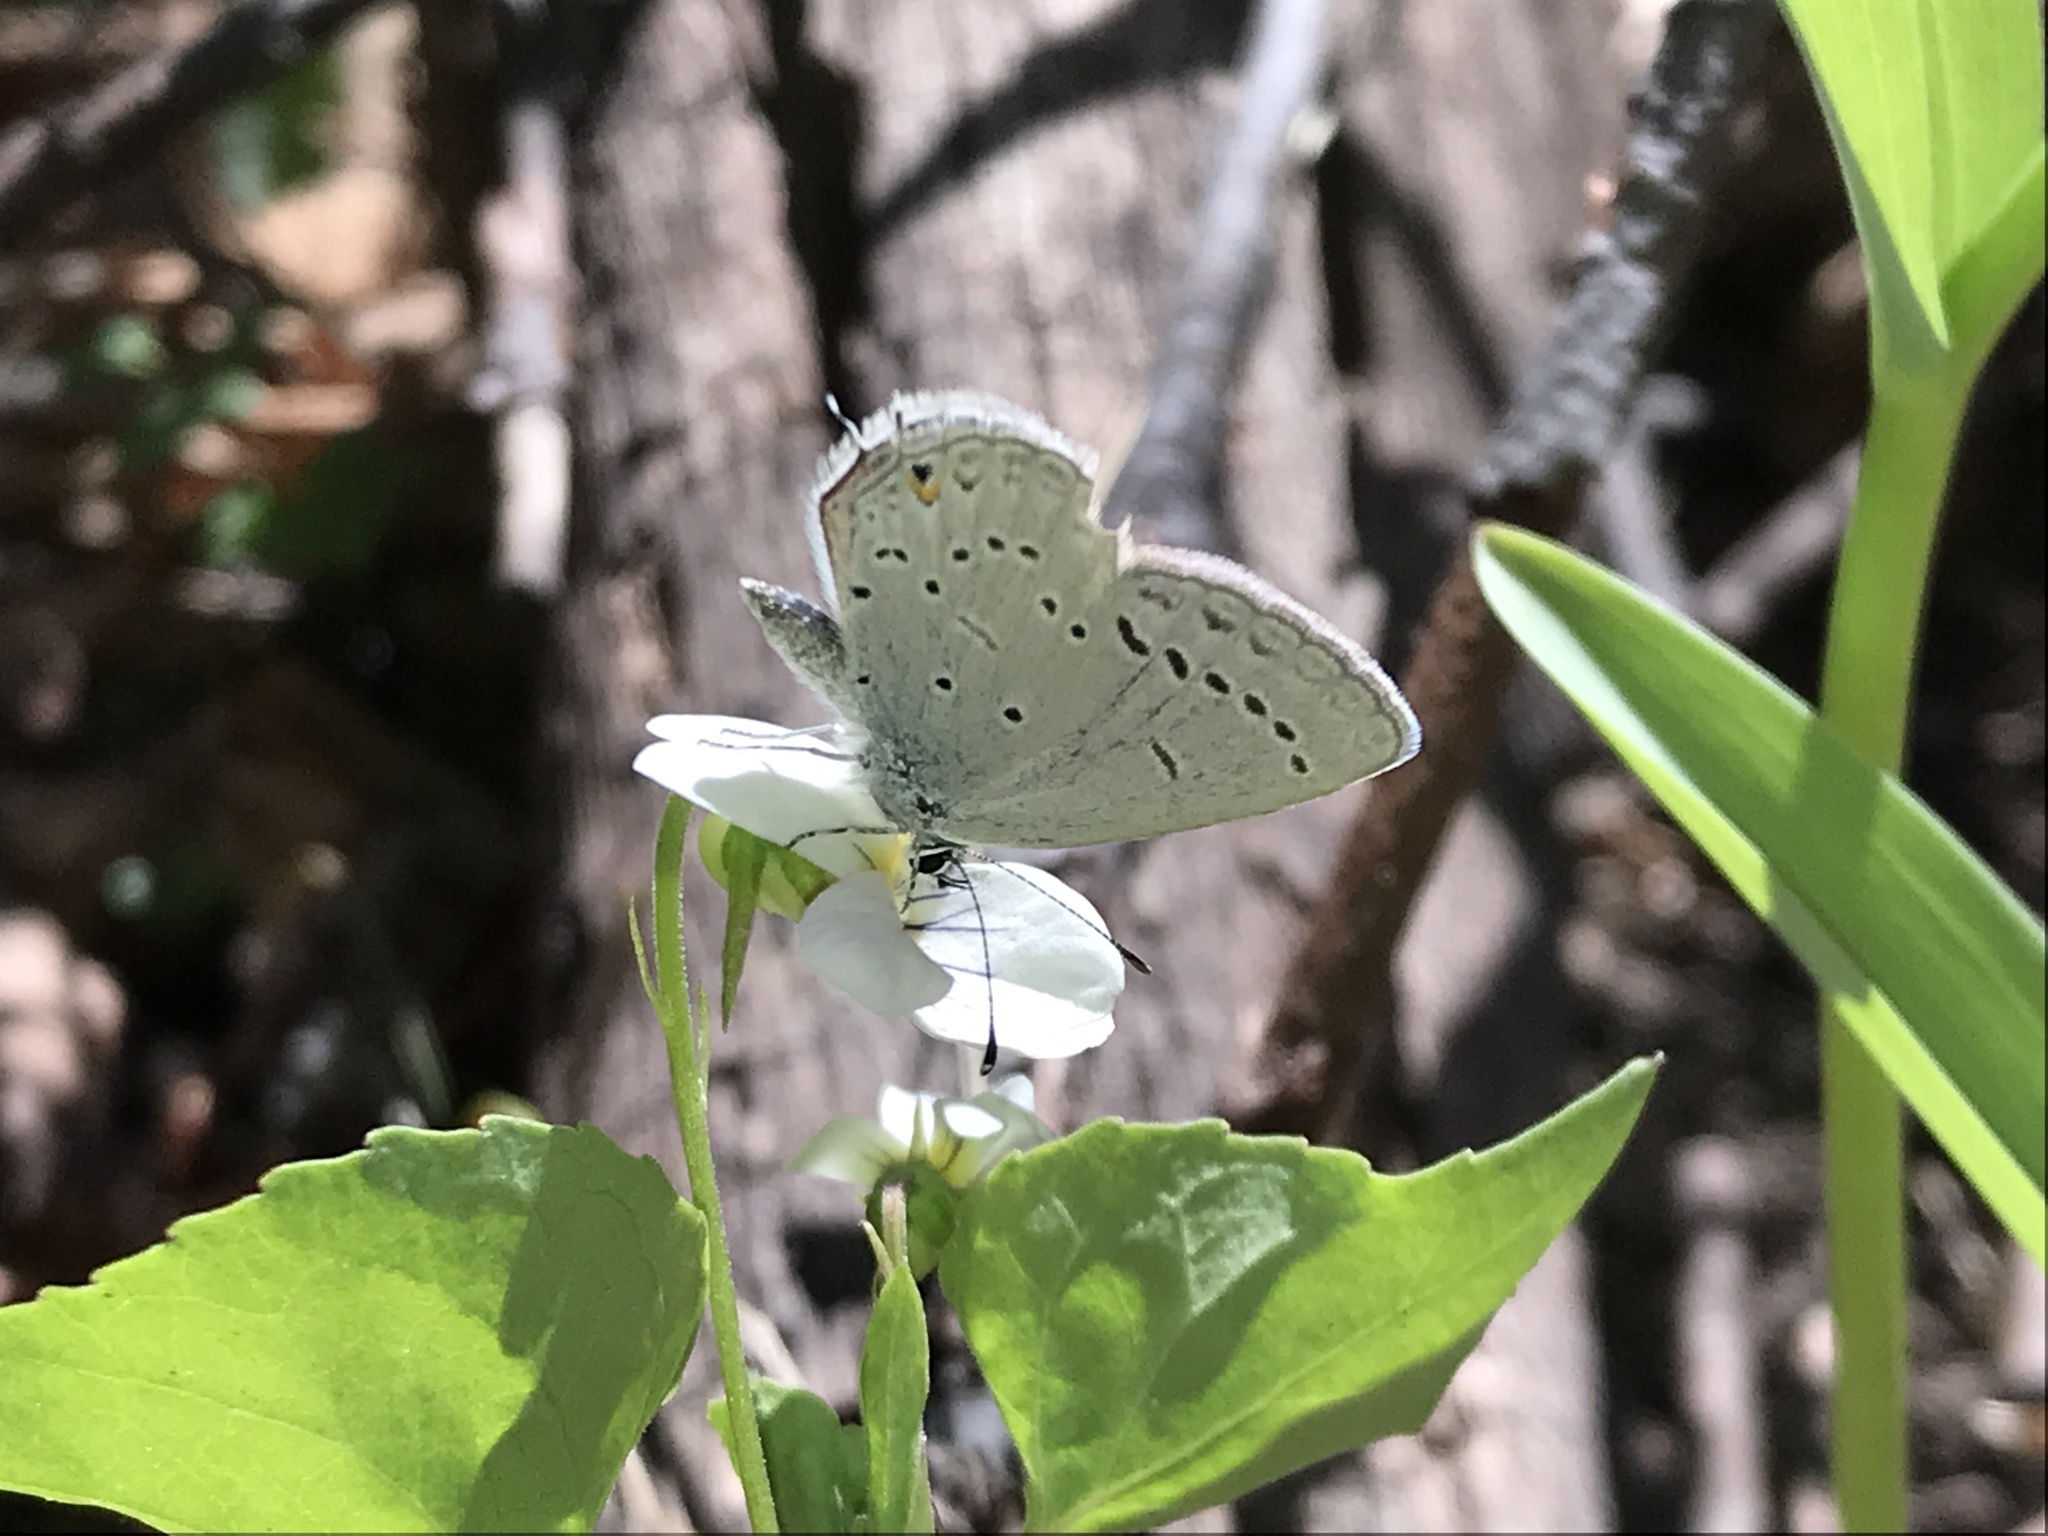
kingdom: Animalia
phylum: Arthropoda
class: Insecta
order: Lepidoptera
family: Lycaenidae
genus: Elkalyce
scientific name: Elkalyce amyntula
